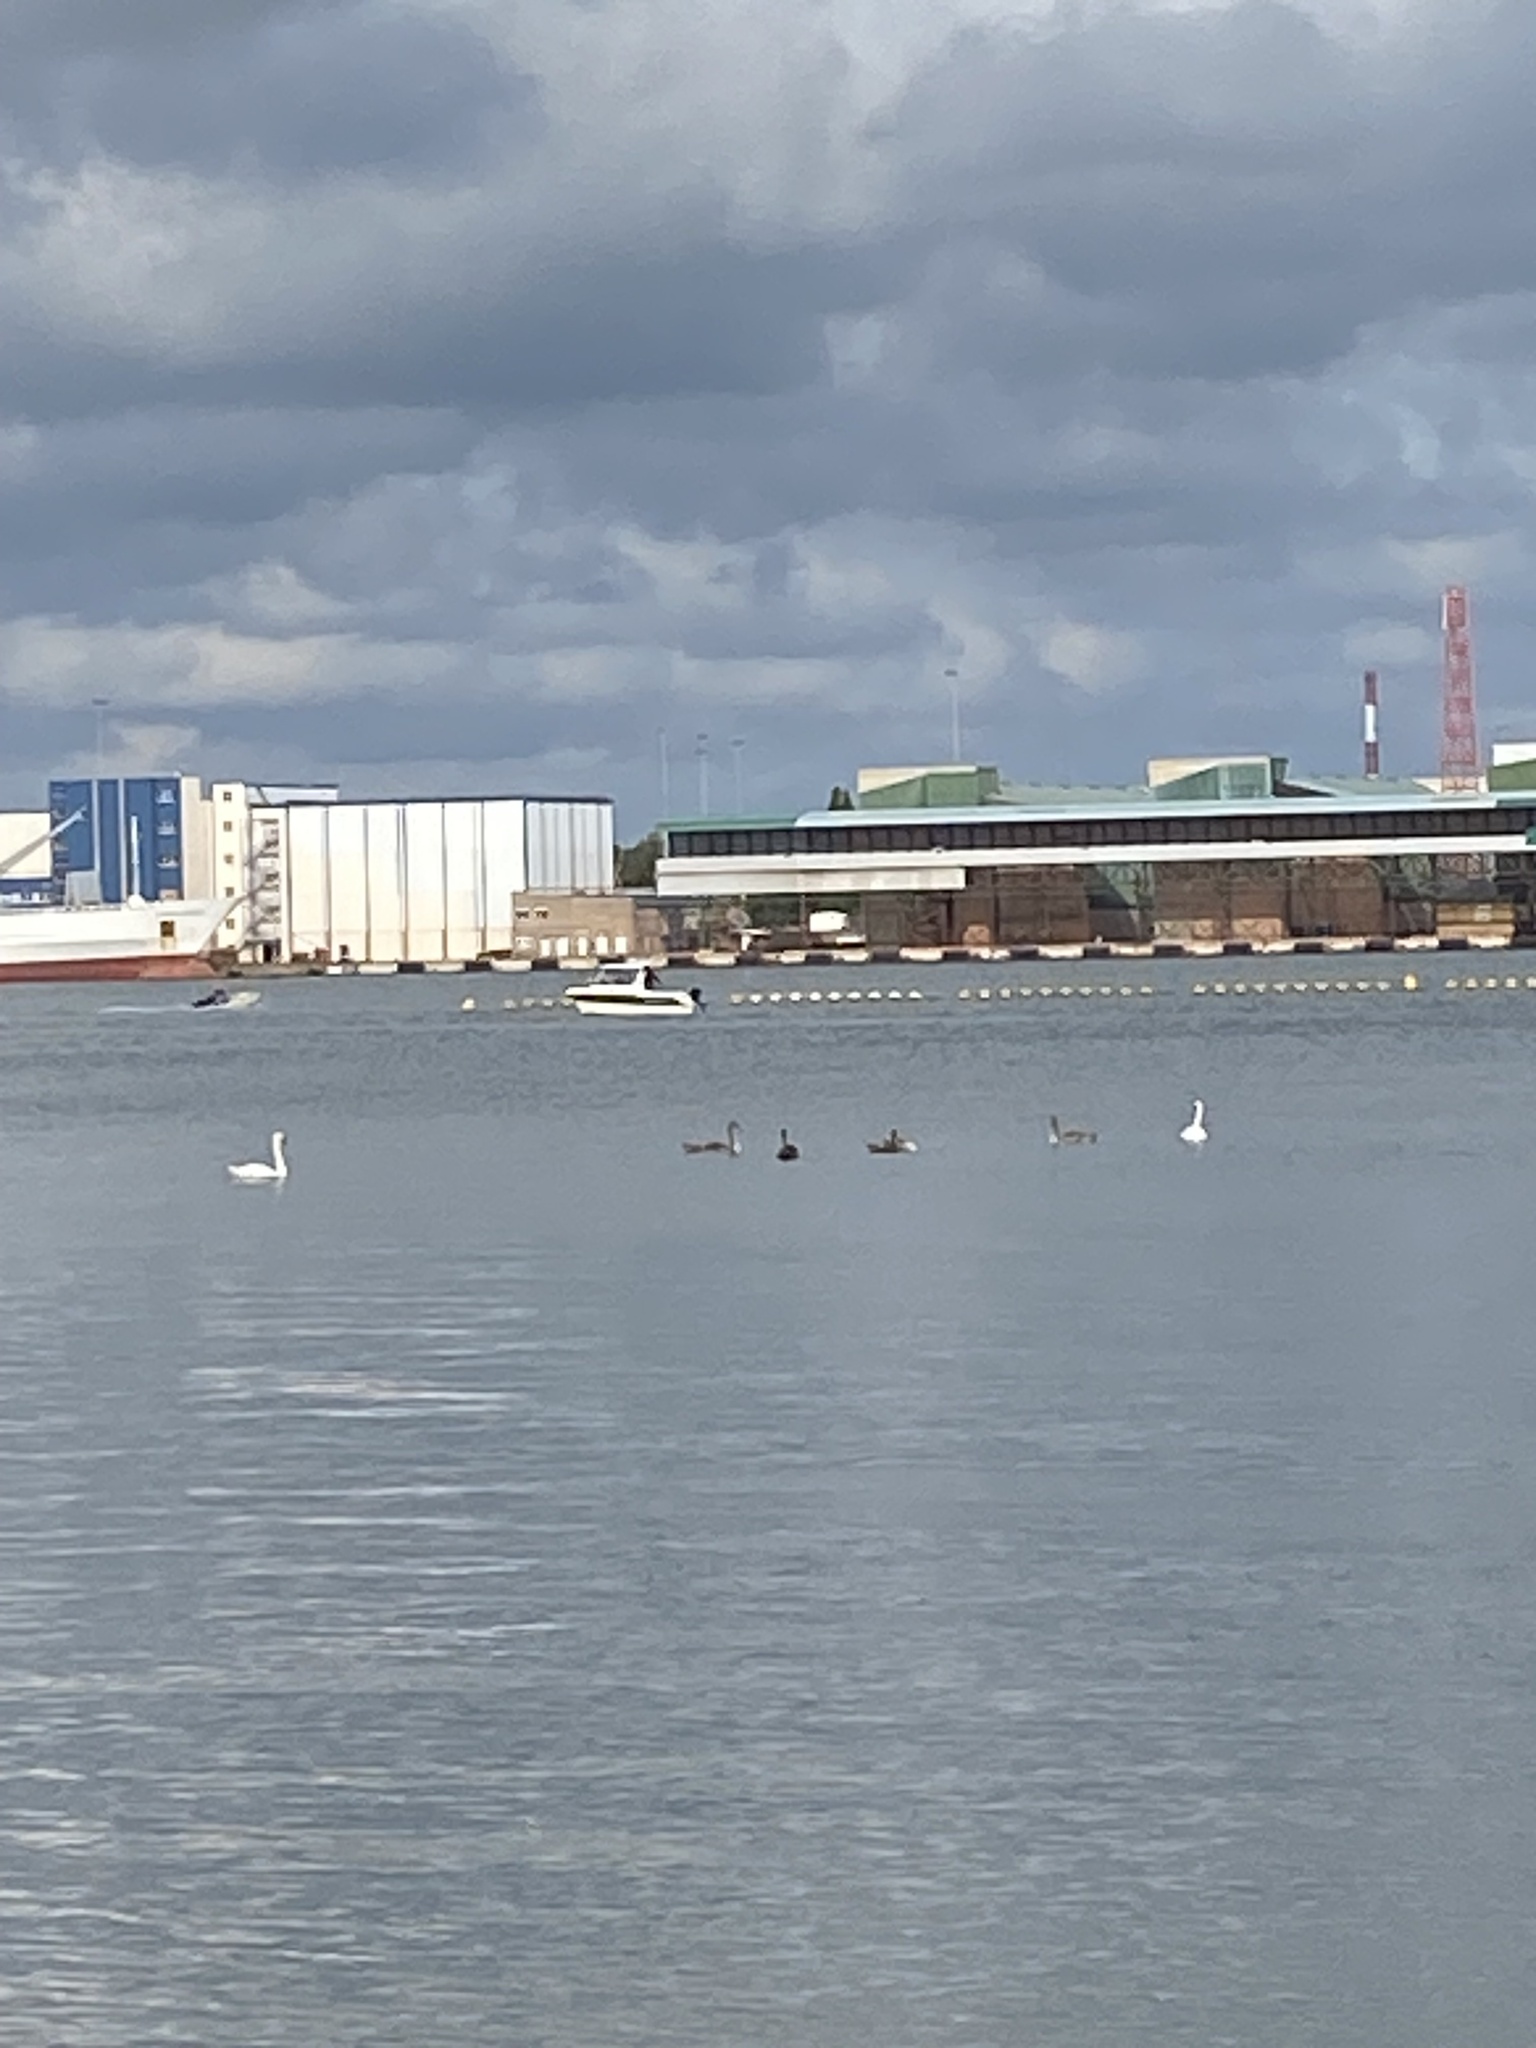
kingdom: Animalia
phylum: Chordata
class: Aves
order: Anseriformes
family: Anatidae
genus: Cygnus
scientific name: Cygnus olor
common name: Mute swan
